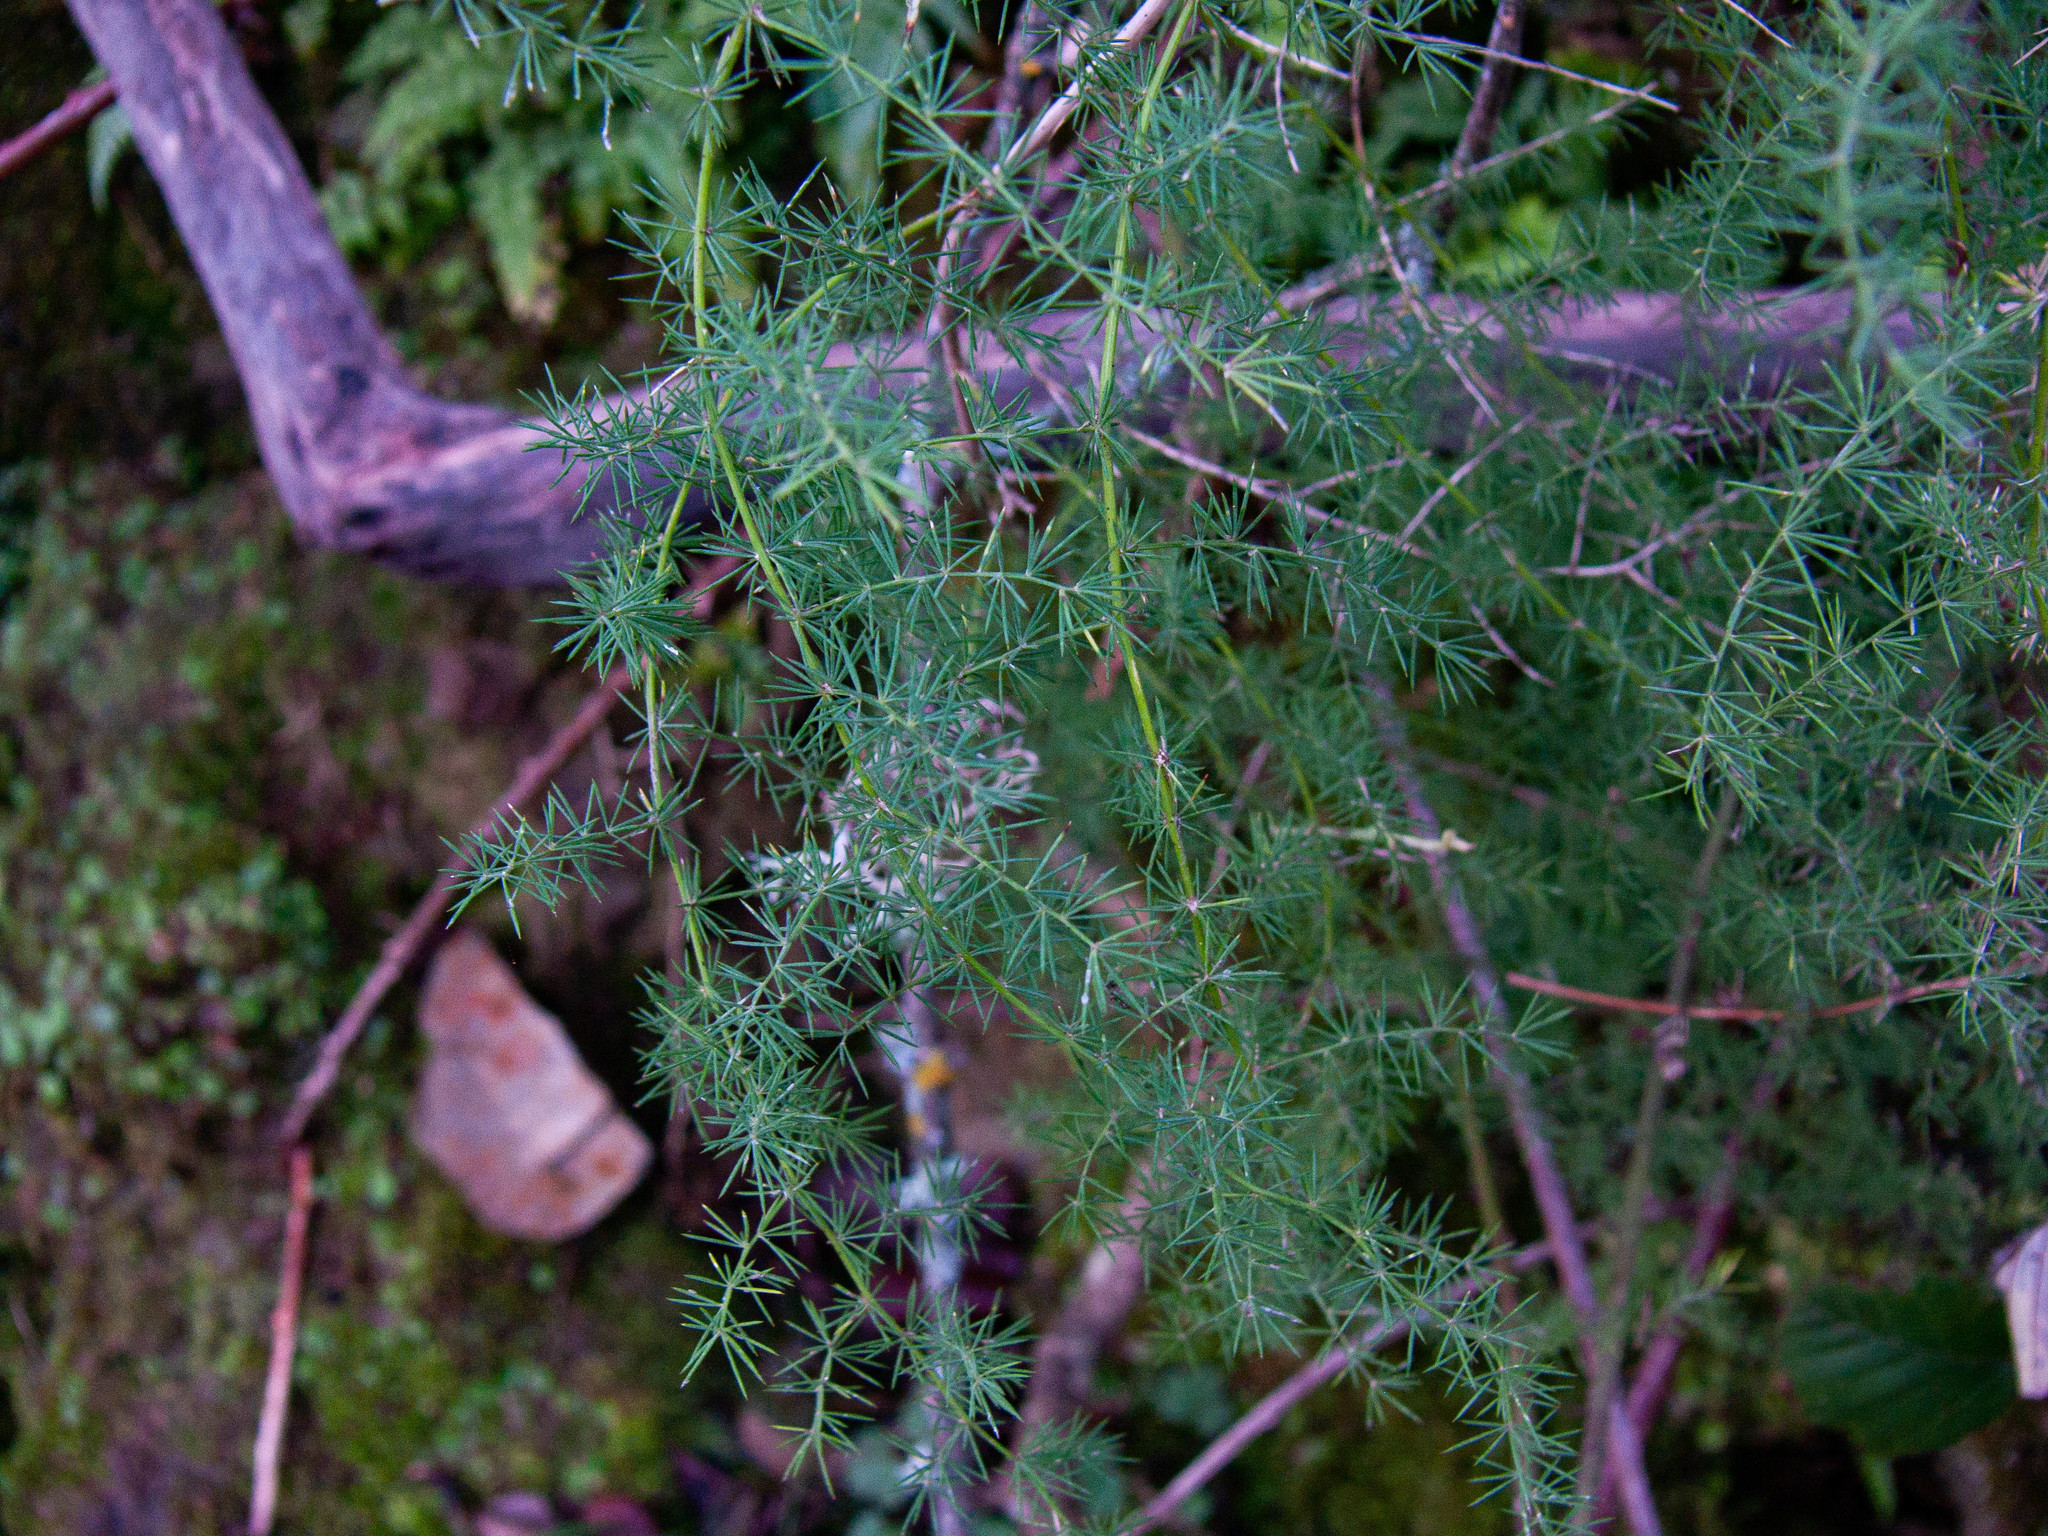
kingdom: Plantae
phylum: Tracheophyta
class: Liliopsida
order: Asparagales
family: Asparagaceae
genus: Asparagus
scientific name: Asparagus acutifolius
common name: Wild asparagus
